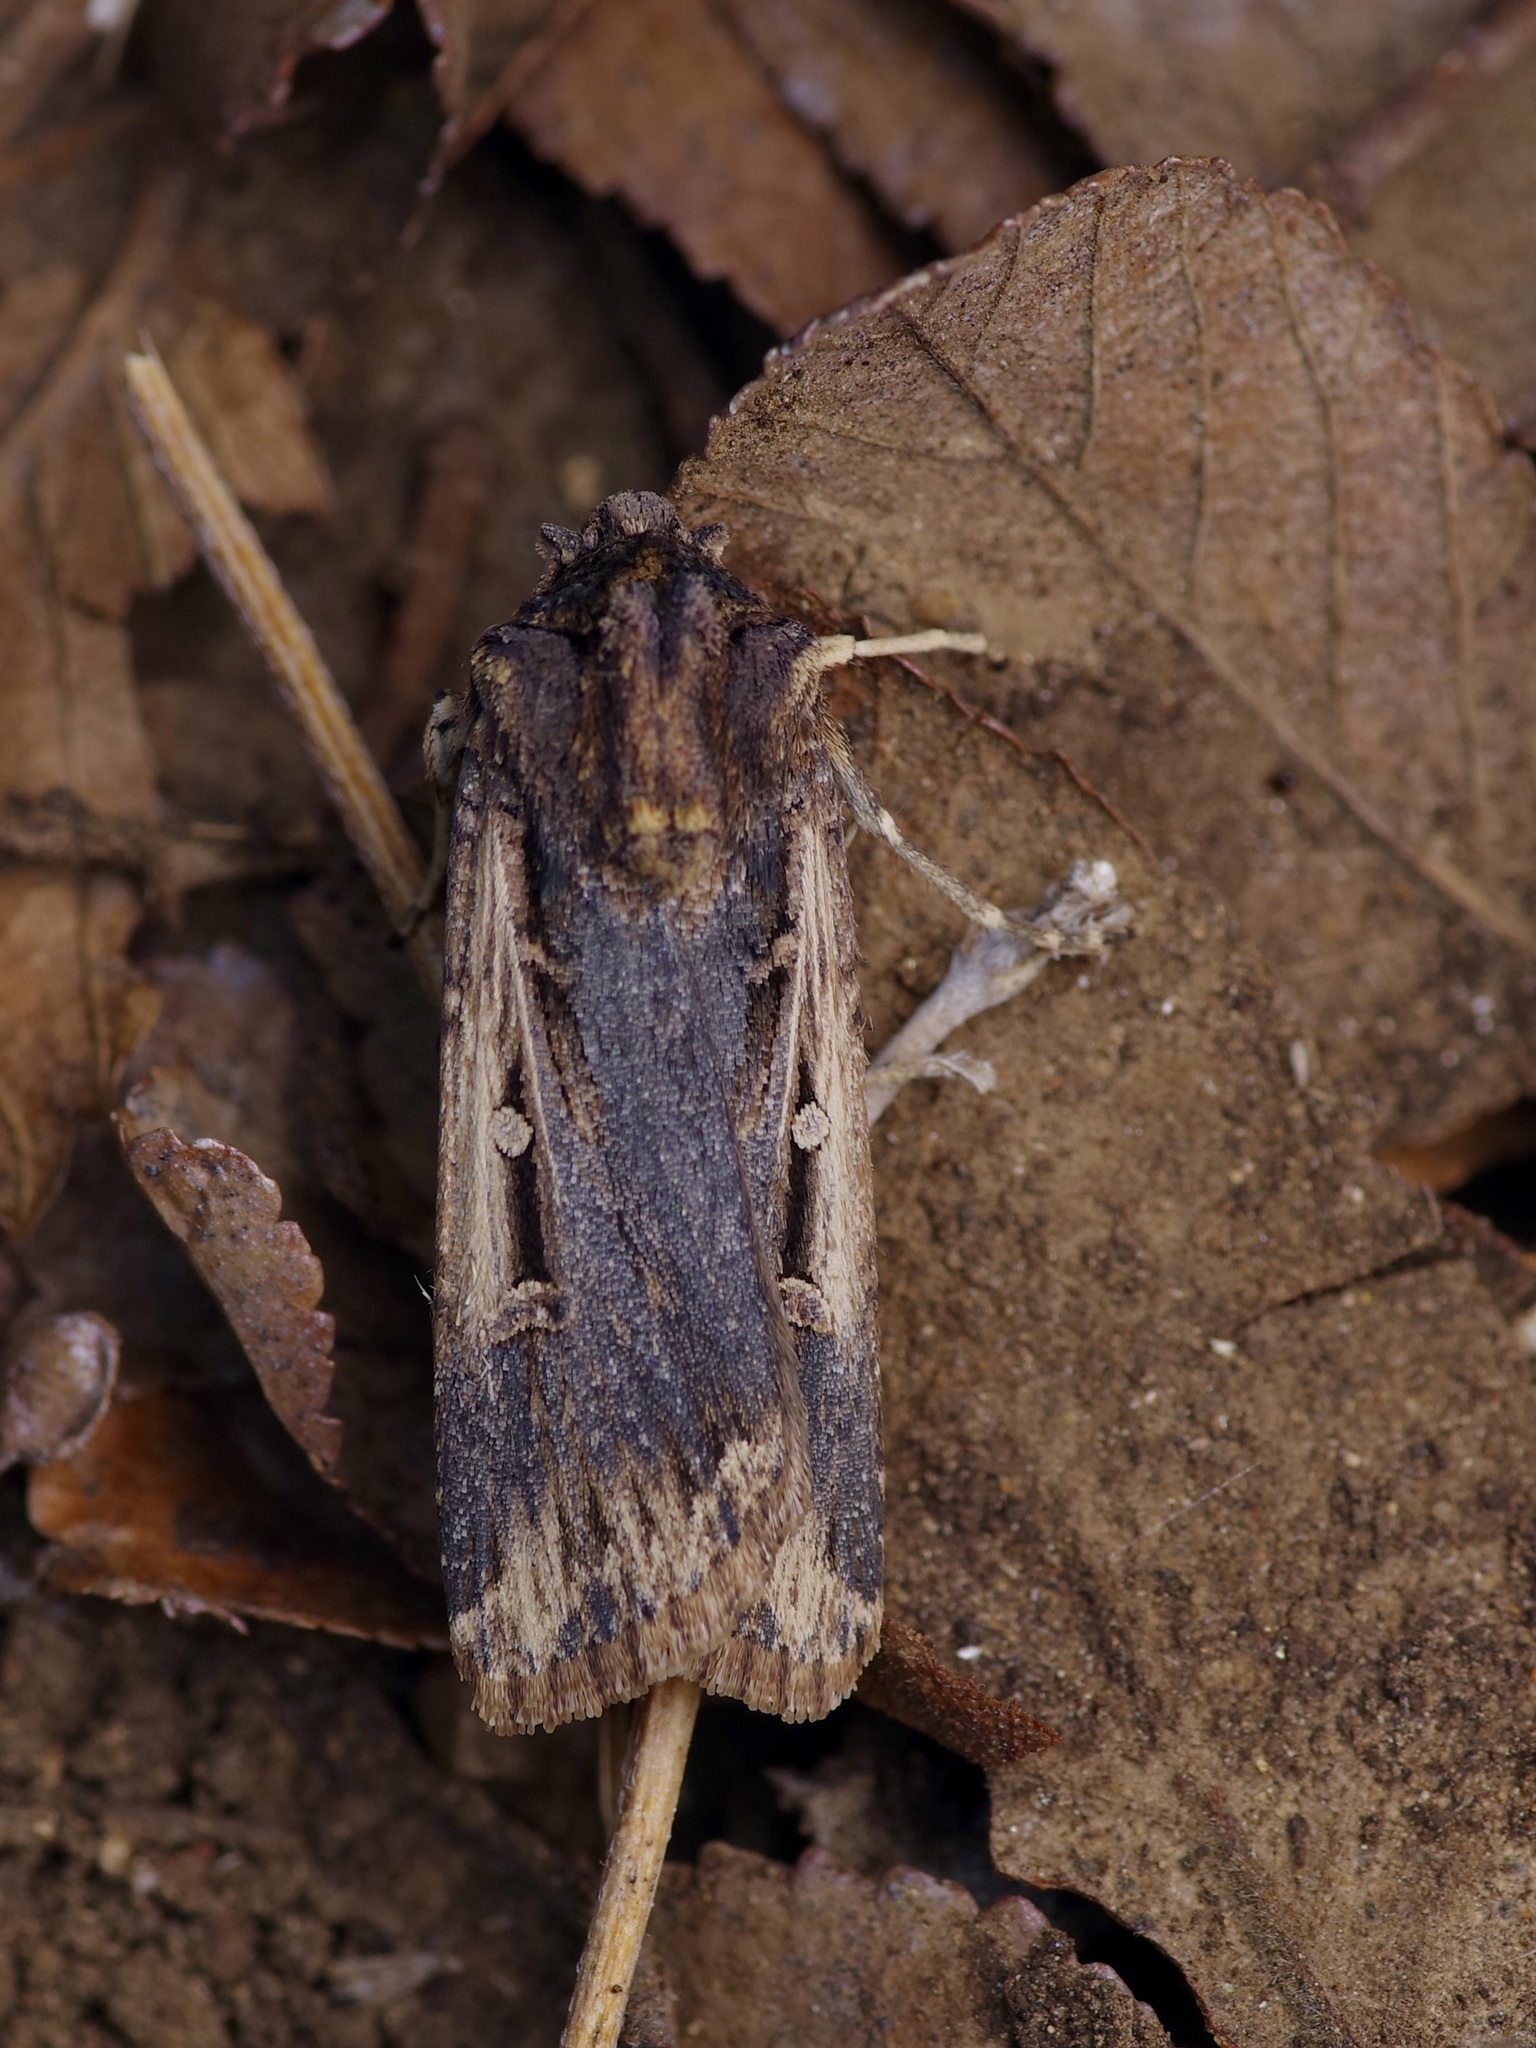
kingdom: Animalia
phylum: Arthropoda
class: Insecta
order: Lepidoptera
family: Noctuidae
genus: Feltia
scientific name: Feltia subterranea
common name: Granulate cutworm
